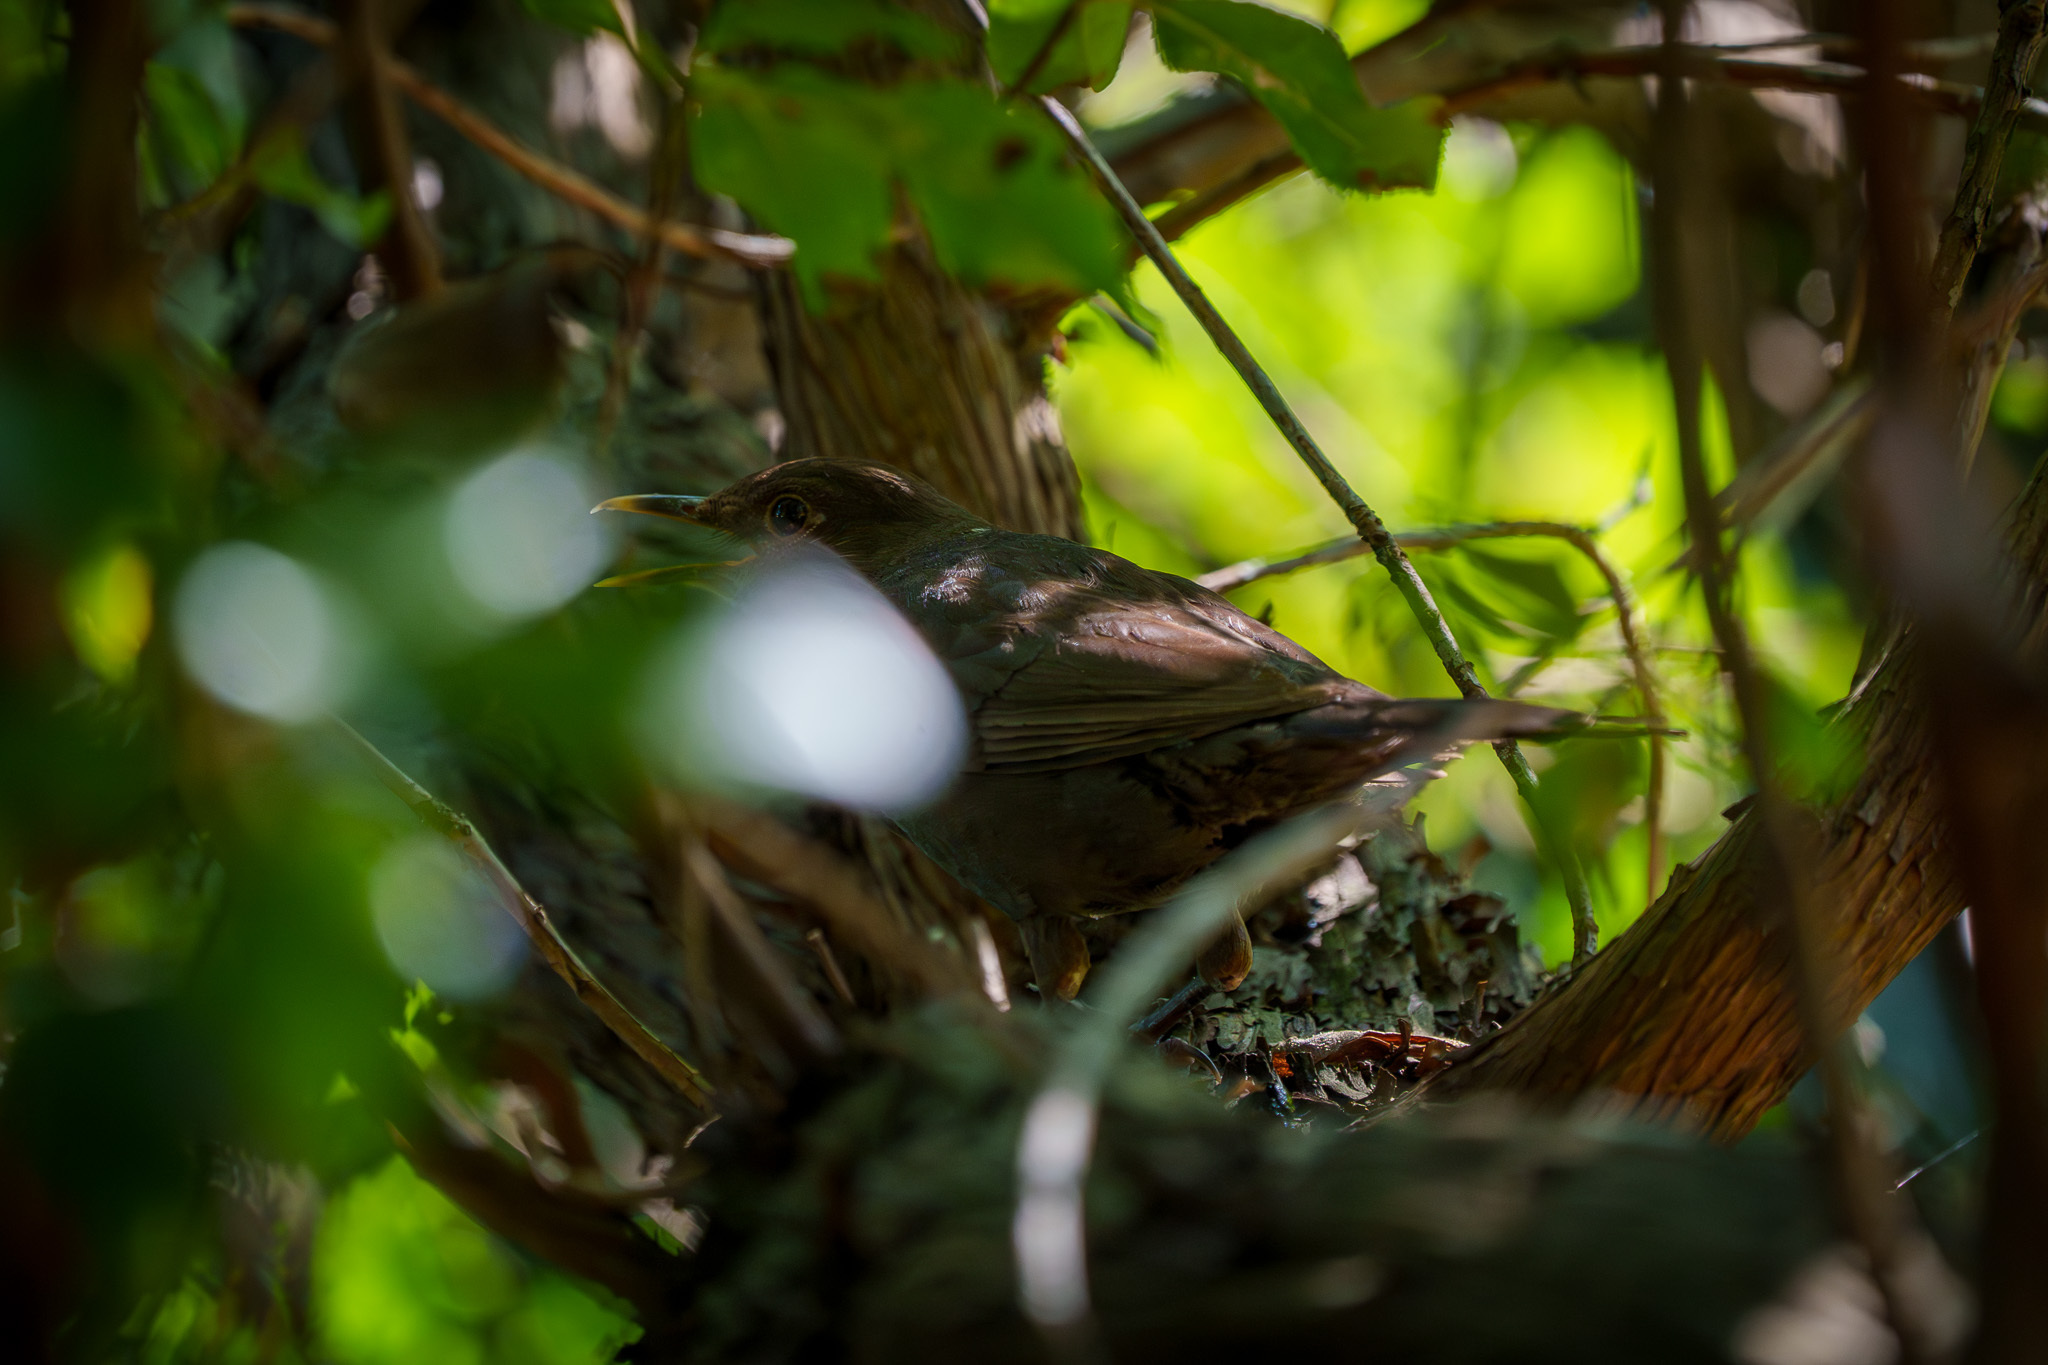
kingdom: Animalia
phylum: Chordata
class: Aves
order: Passeriformes
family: Turdidae
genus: Turdus
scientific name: Turdus merula
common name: Common blackbird
